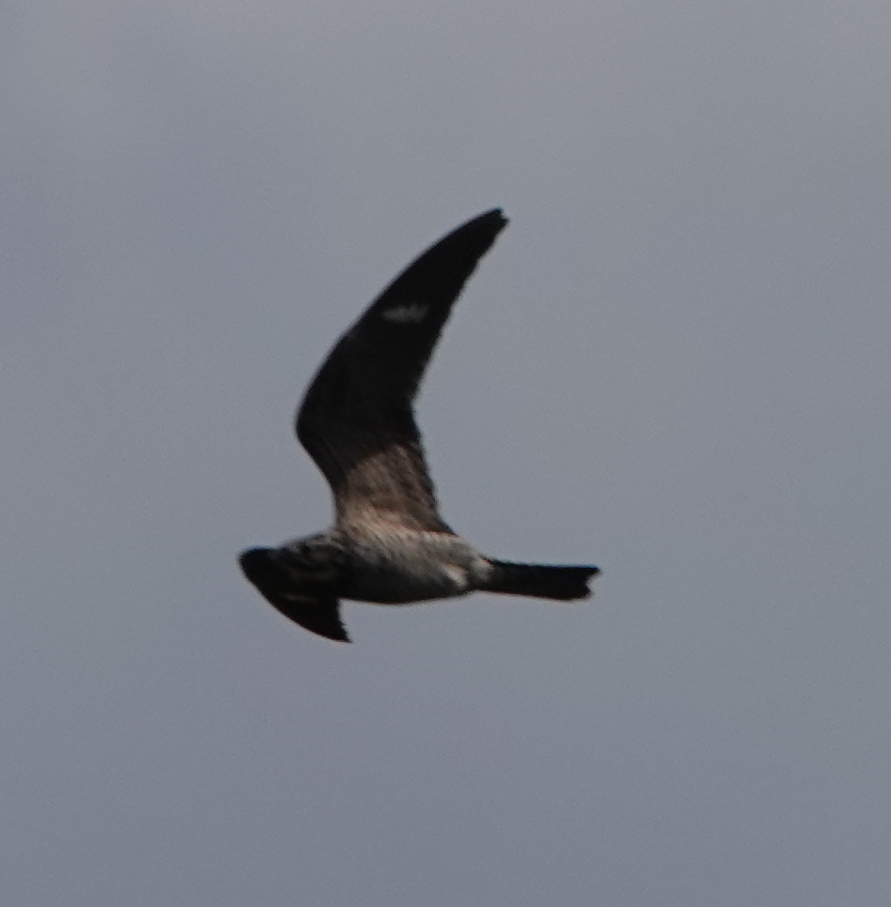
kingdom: Animalia
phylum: Chordata
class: Aves
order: Caprimulgiformes
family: Caprimulgidae
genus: Chordeiles
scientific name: Chordeiles minor
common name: Common nighthawk
